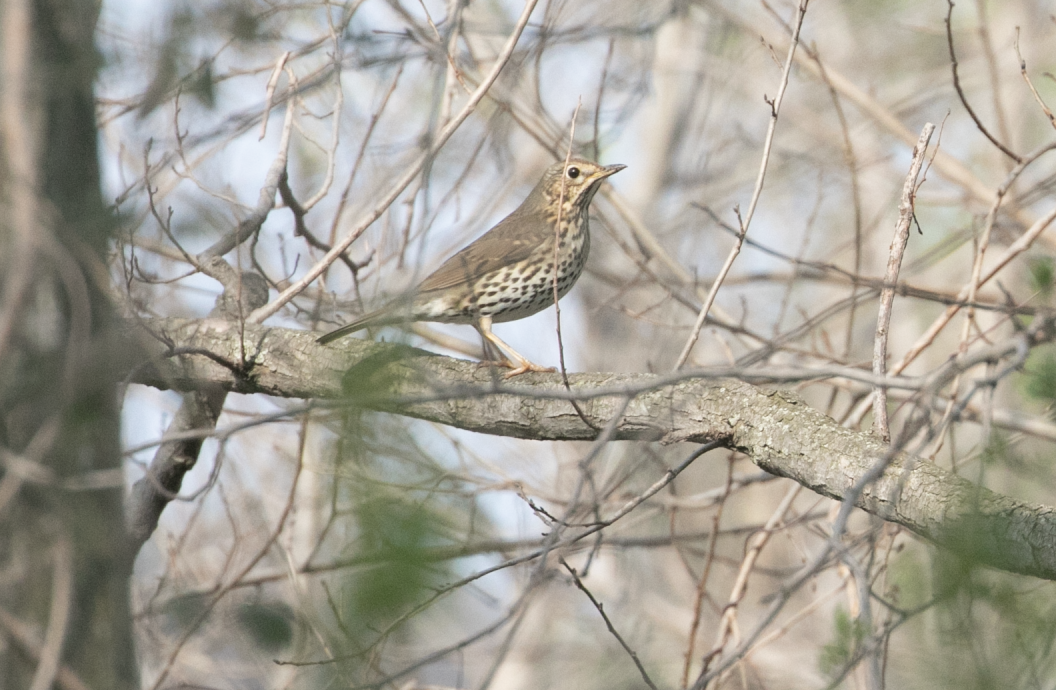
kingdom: Animalia
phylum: Chordata
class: Aves
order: Passeriformes
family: Turdidae
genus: Turdus
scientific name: Turdus philomelos
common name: Song thrush
